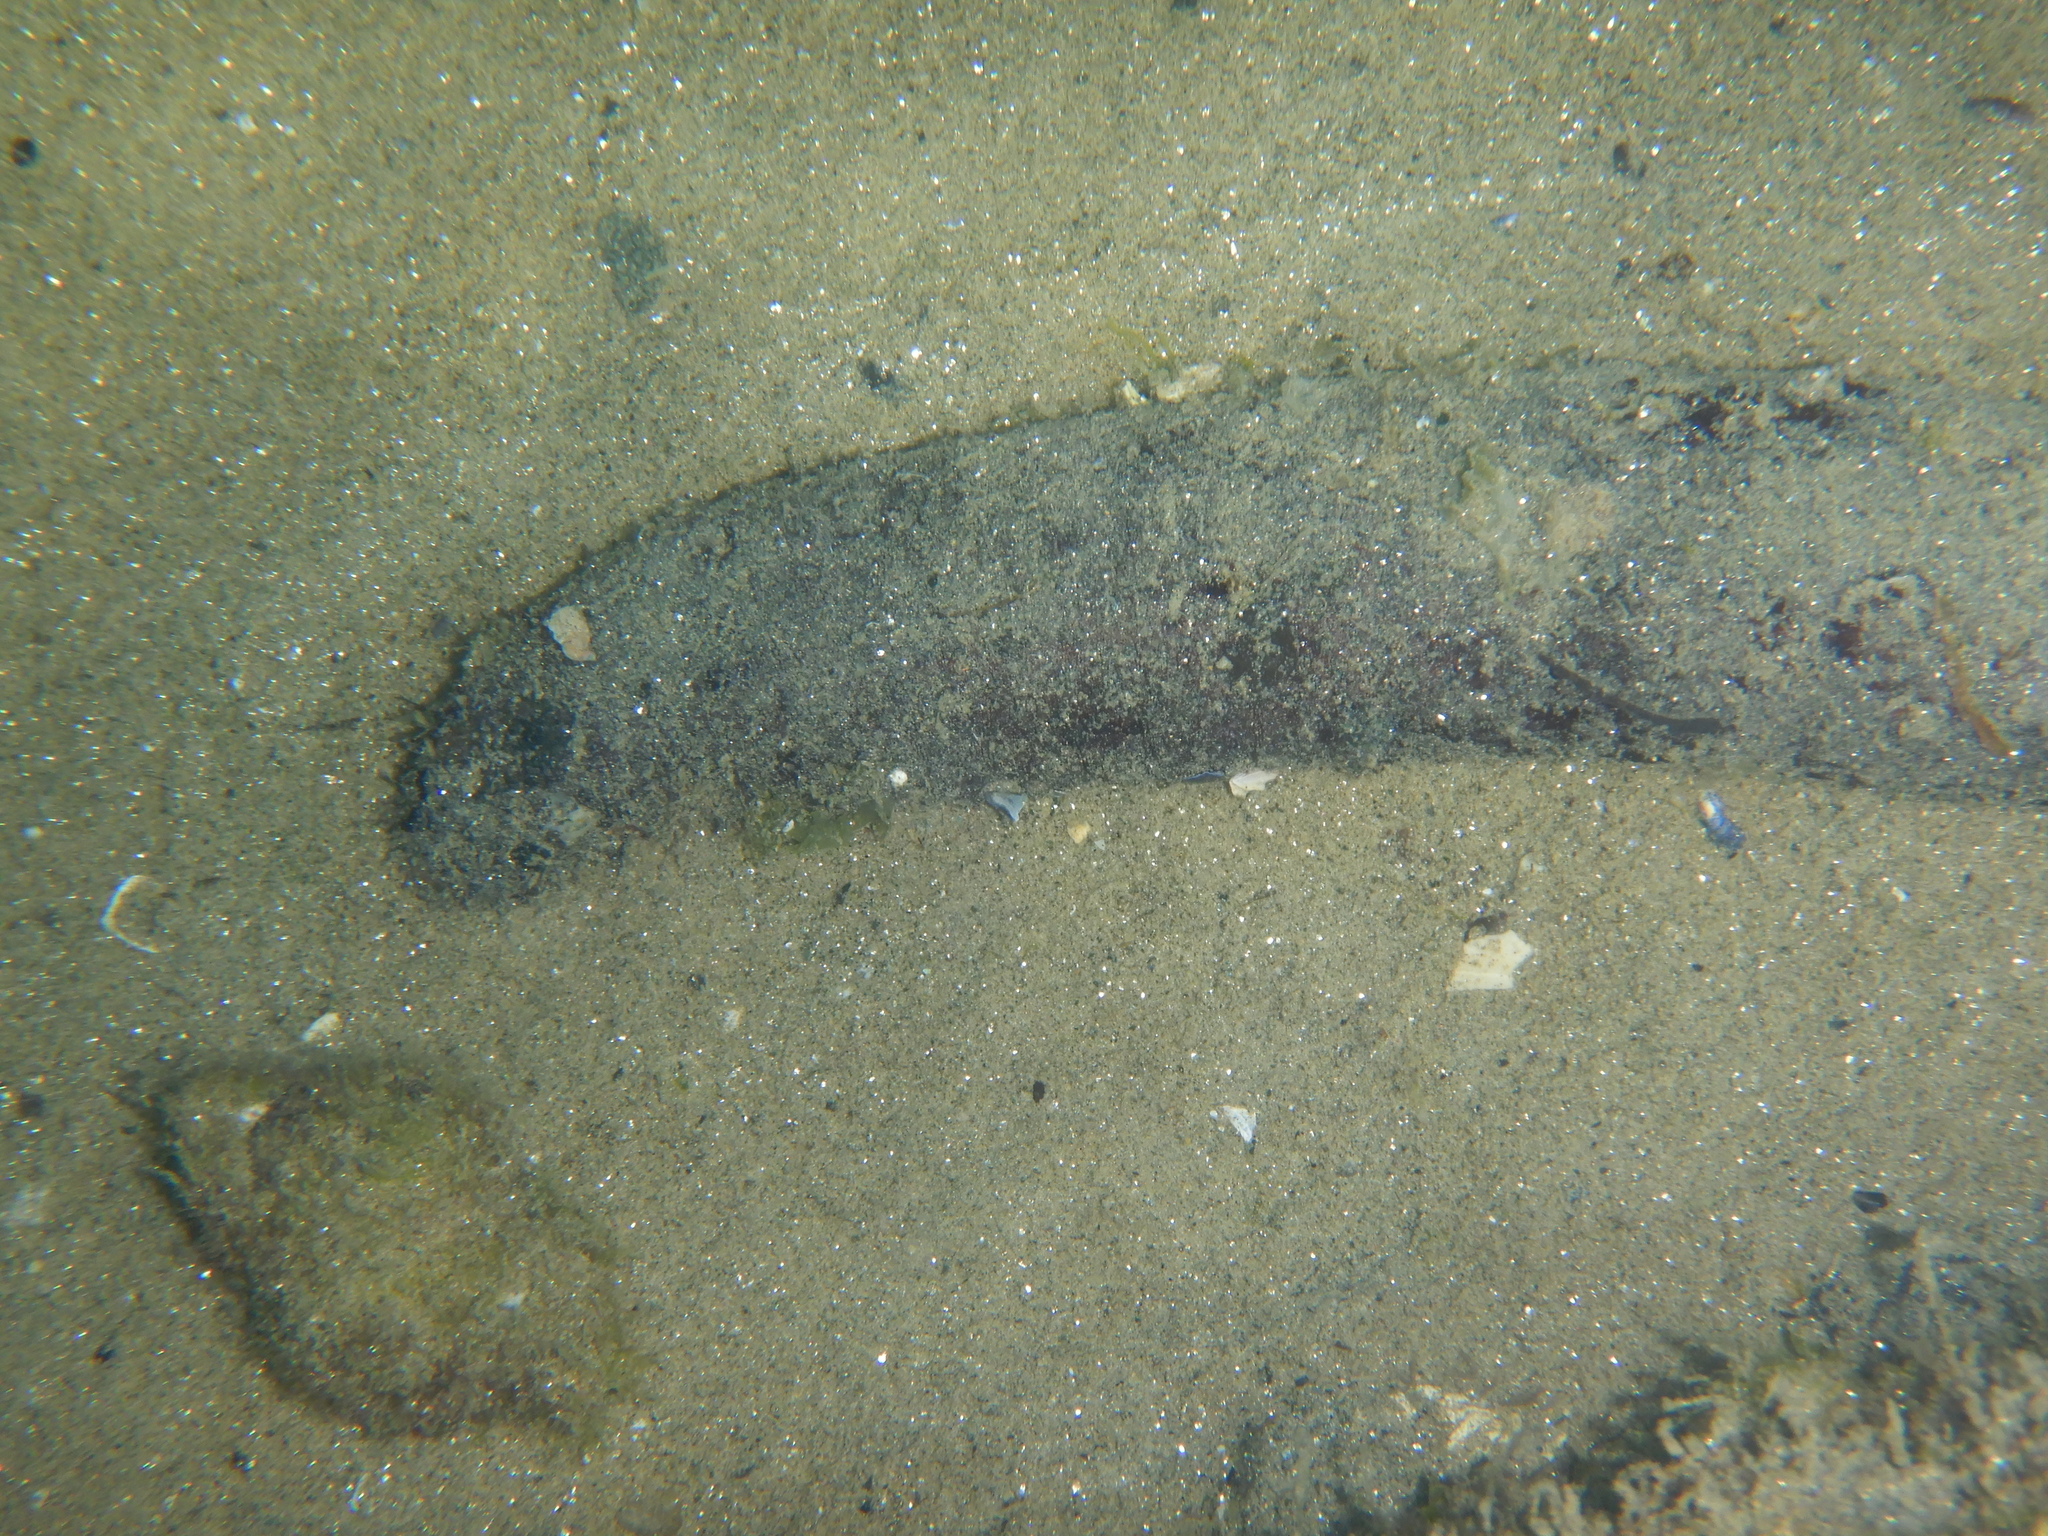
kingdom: Animalia
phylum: Echinodermata
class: Holothuroidea
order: Holothuriida
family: Holothuriidae
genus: Holothuria
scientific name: Holothuria
